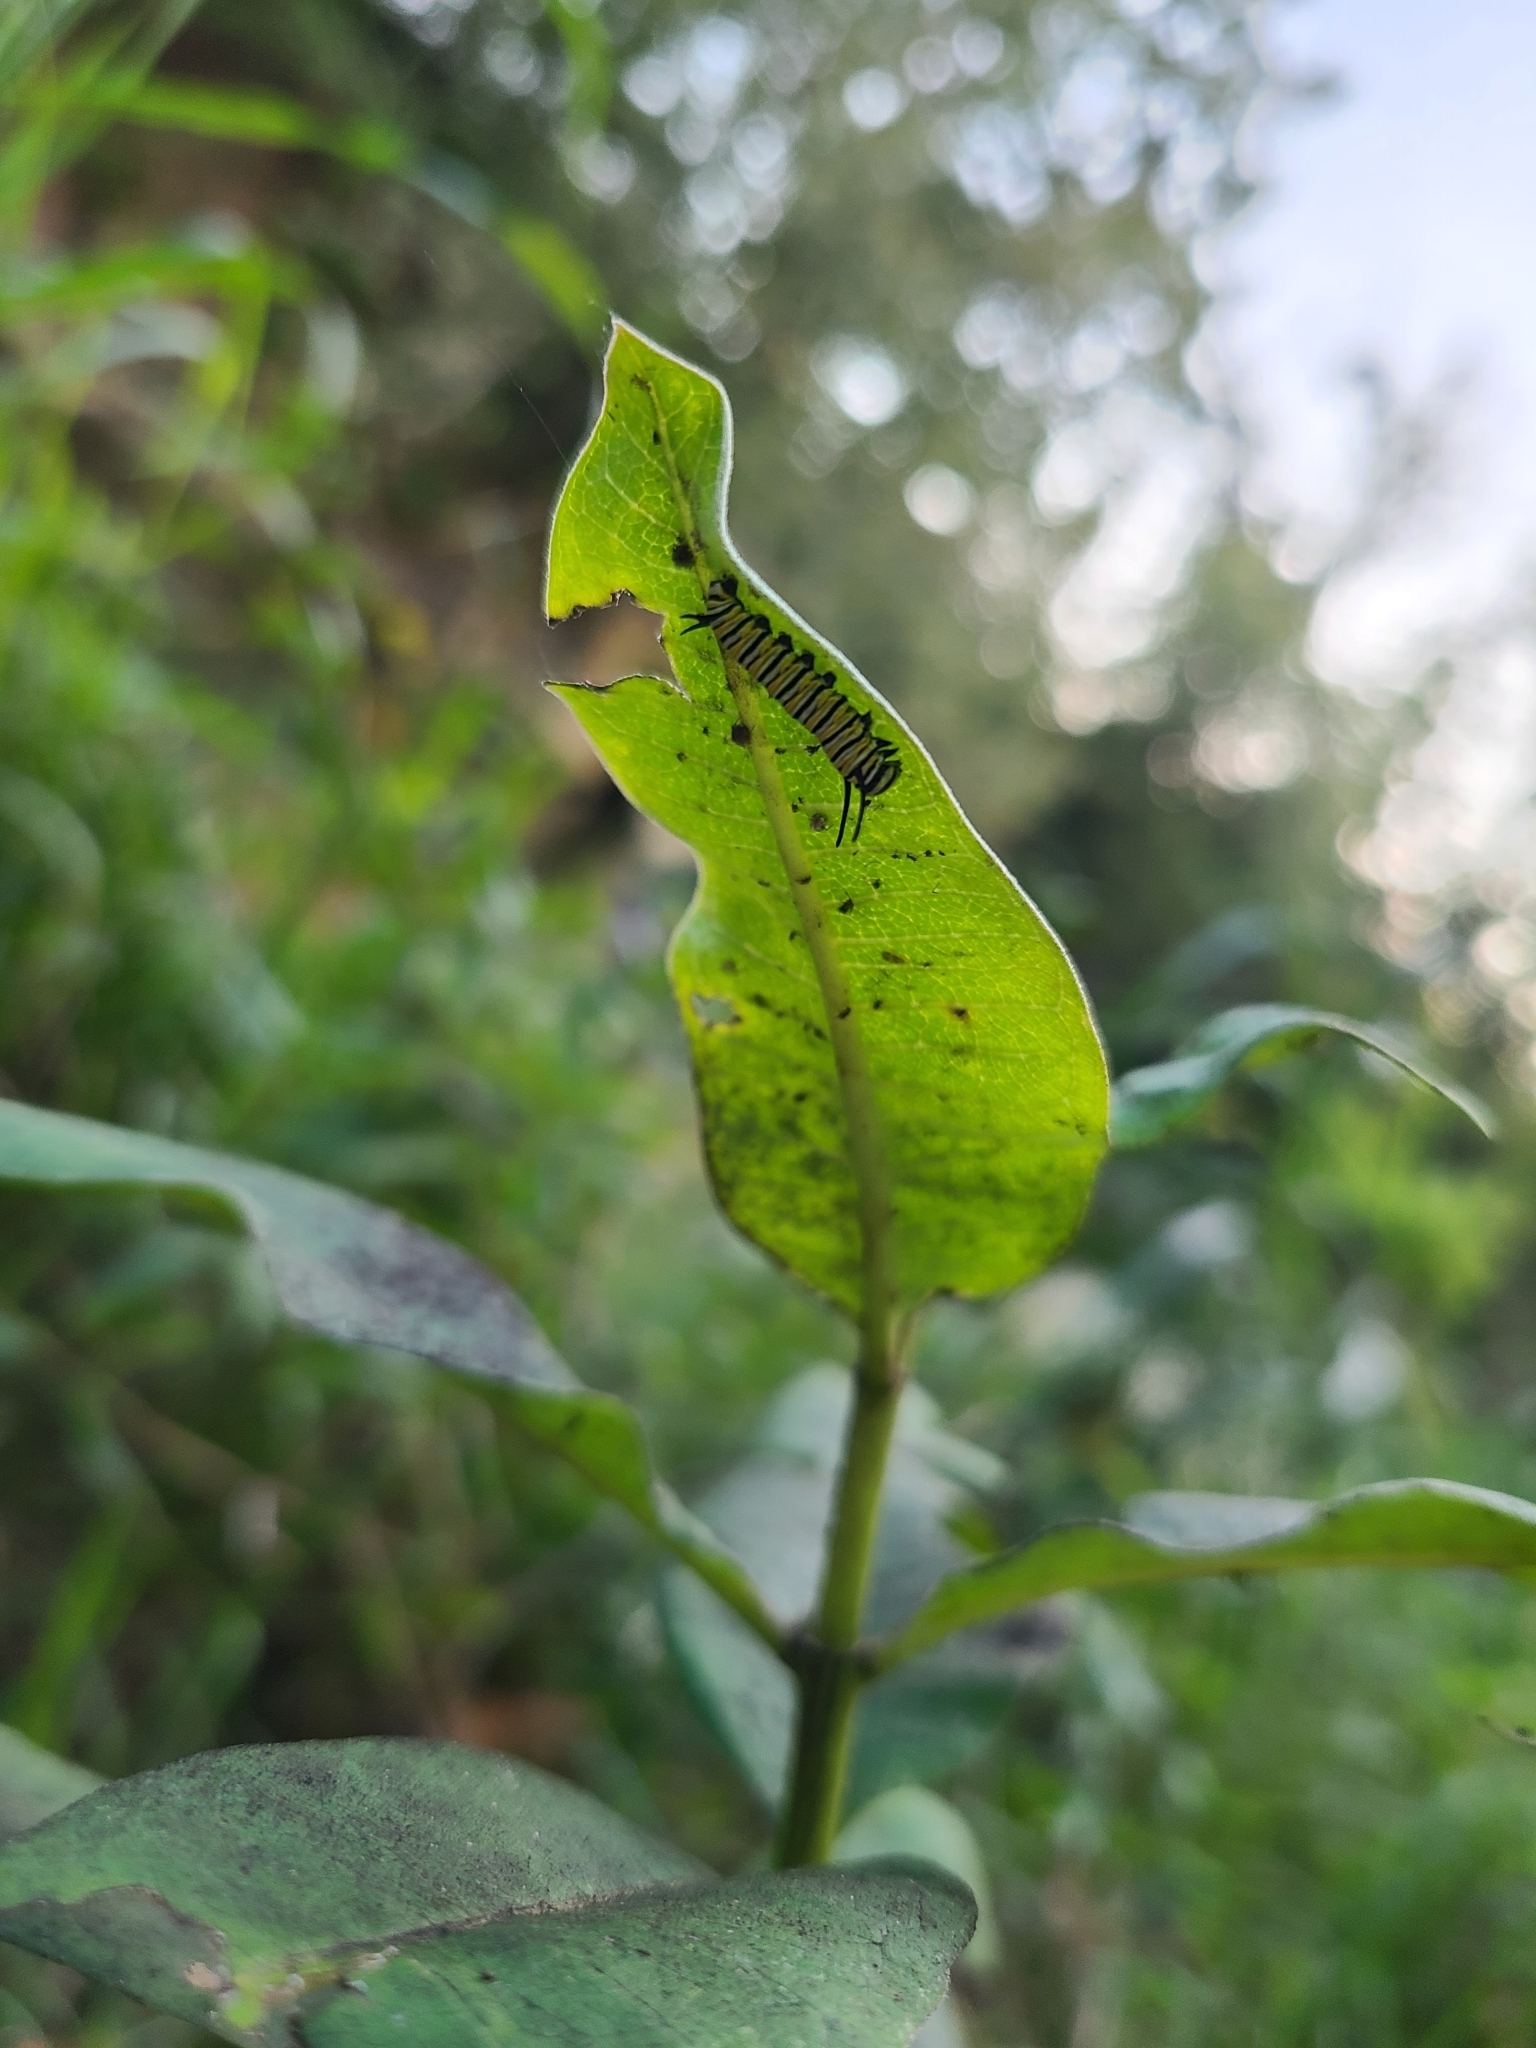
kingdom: Animalia
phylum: Arthropoda
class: Insecta
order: Lepidoptera
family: Nymphalidae
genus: Danaus
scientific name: Danaus plexippus
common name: Monarch
